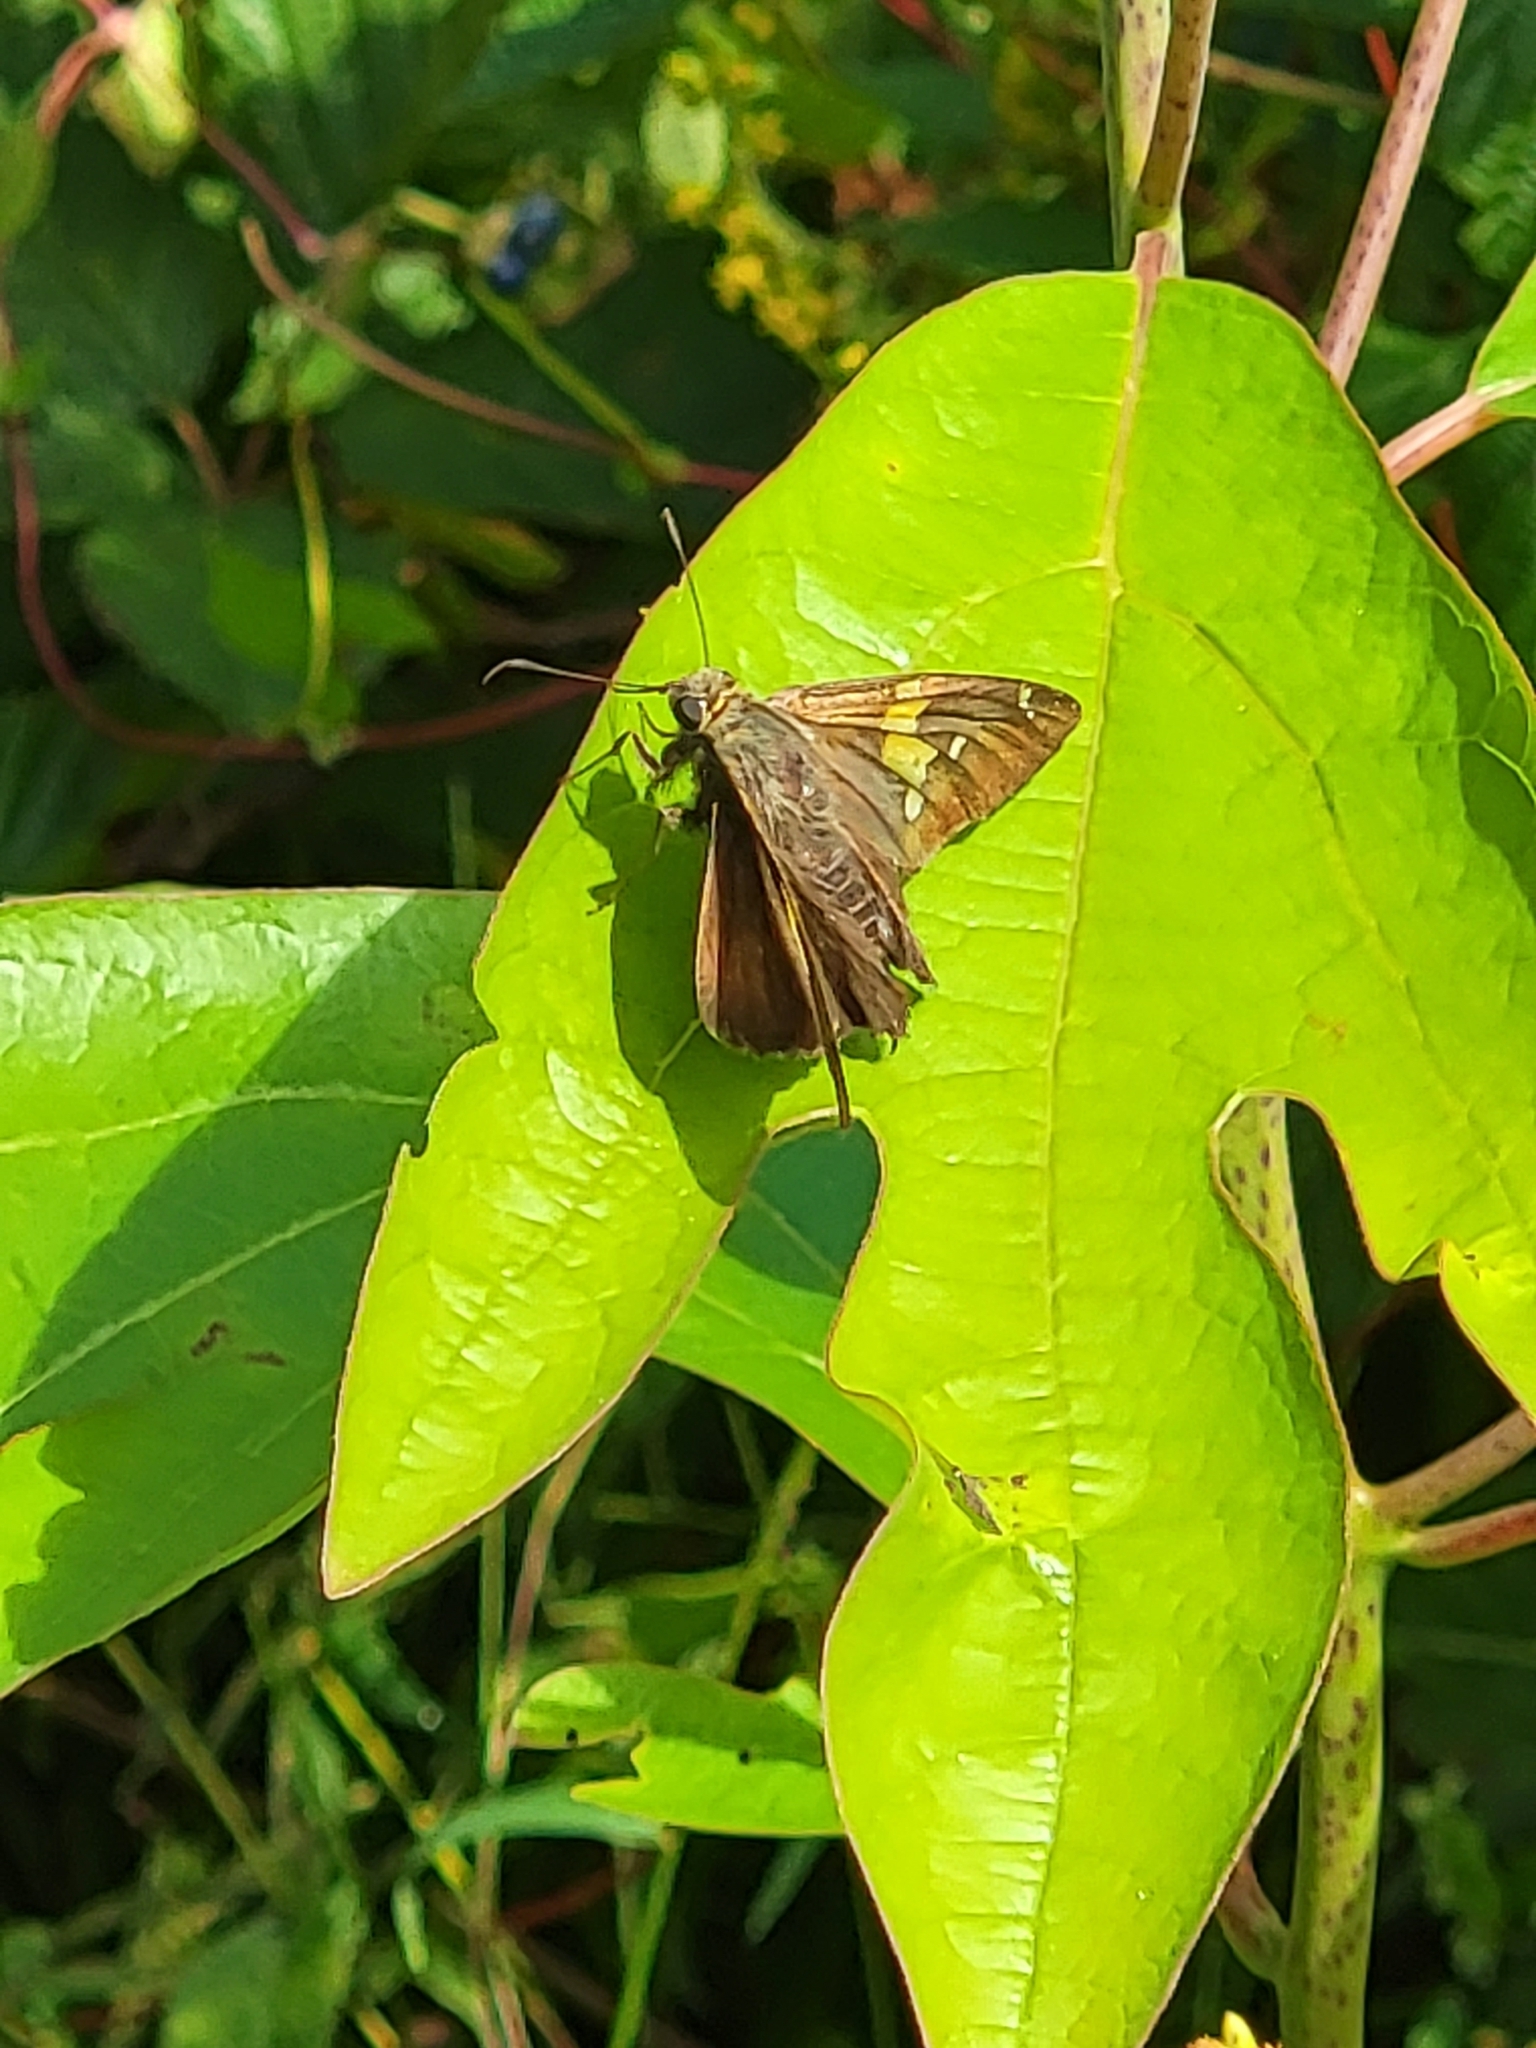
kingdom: Animalia
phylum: Arthropoda
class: Insecta
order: Lepidoptera
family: Hesperiidae
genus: Epargyreus
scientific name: Epargyreus clarus
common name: Silver-spotted skipper
